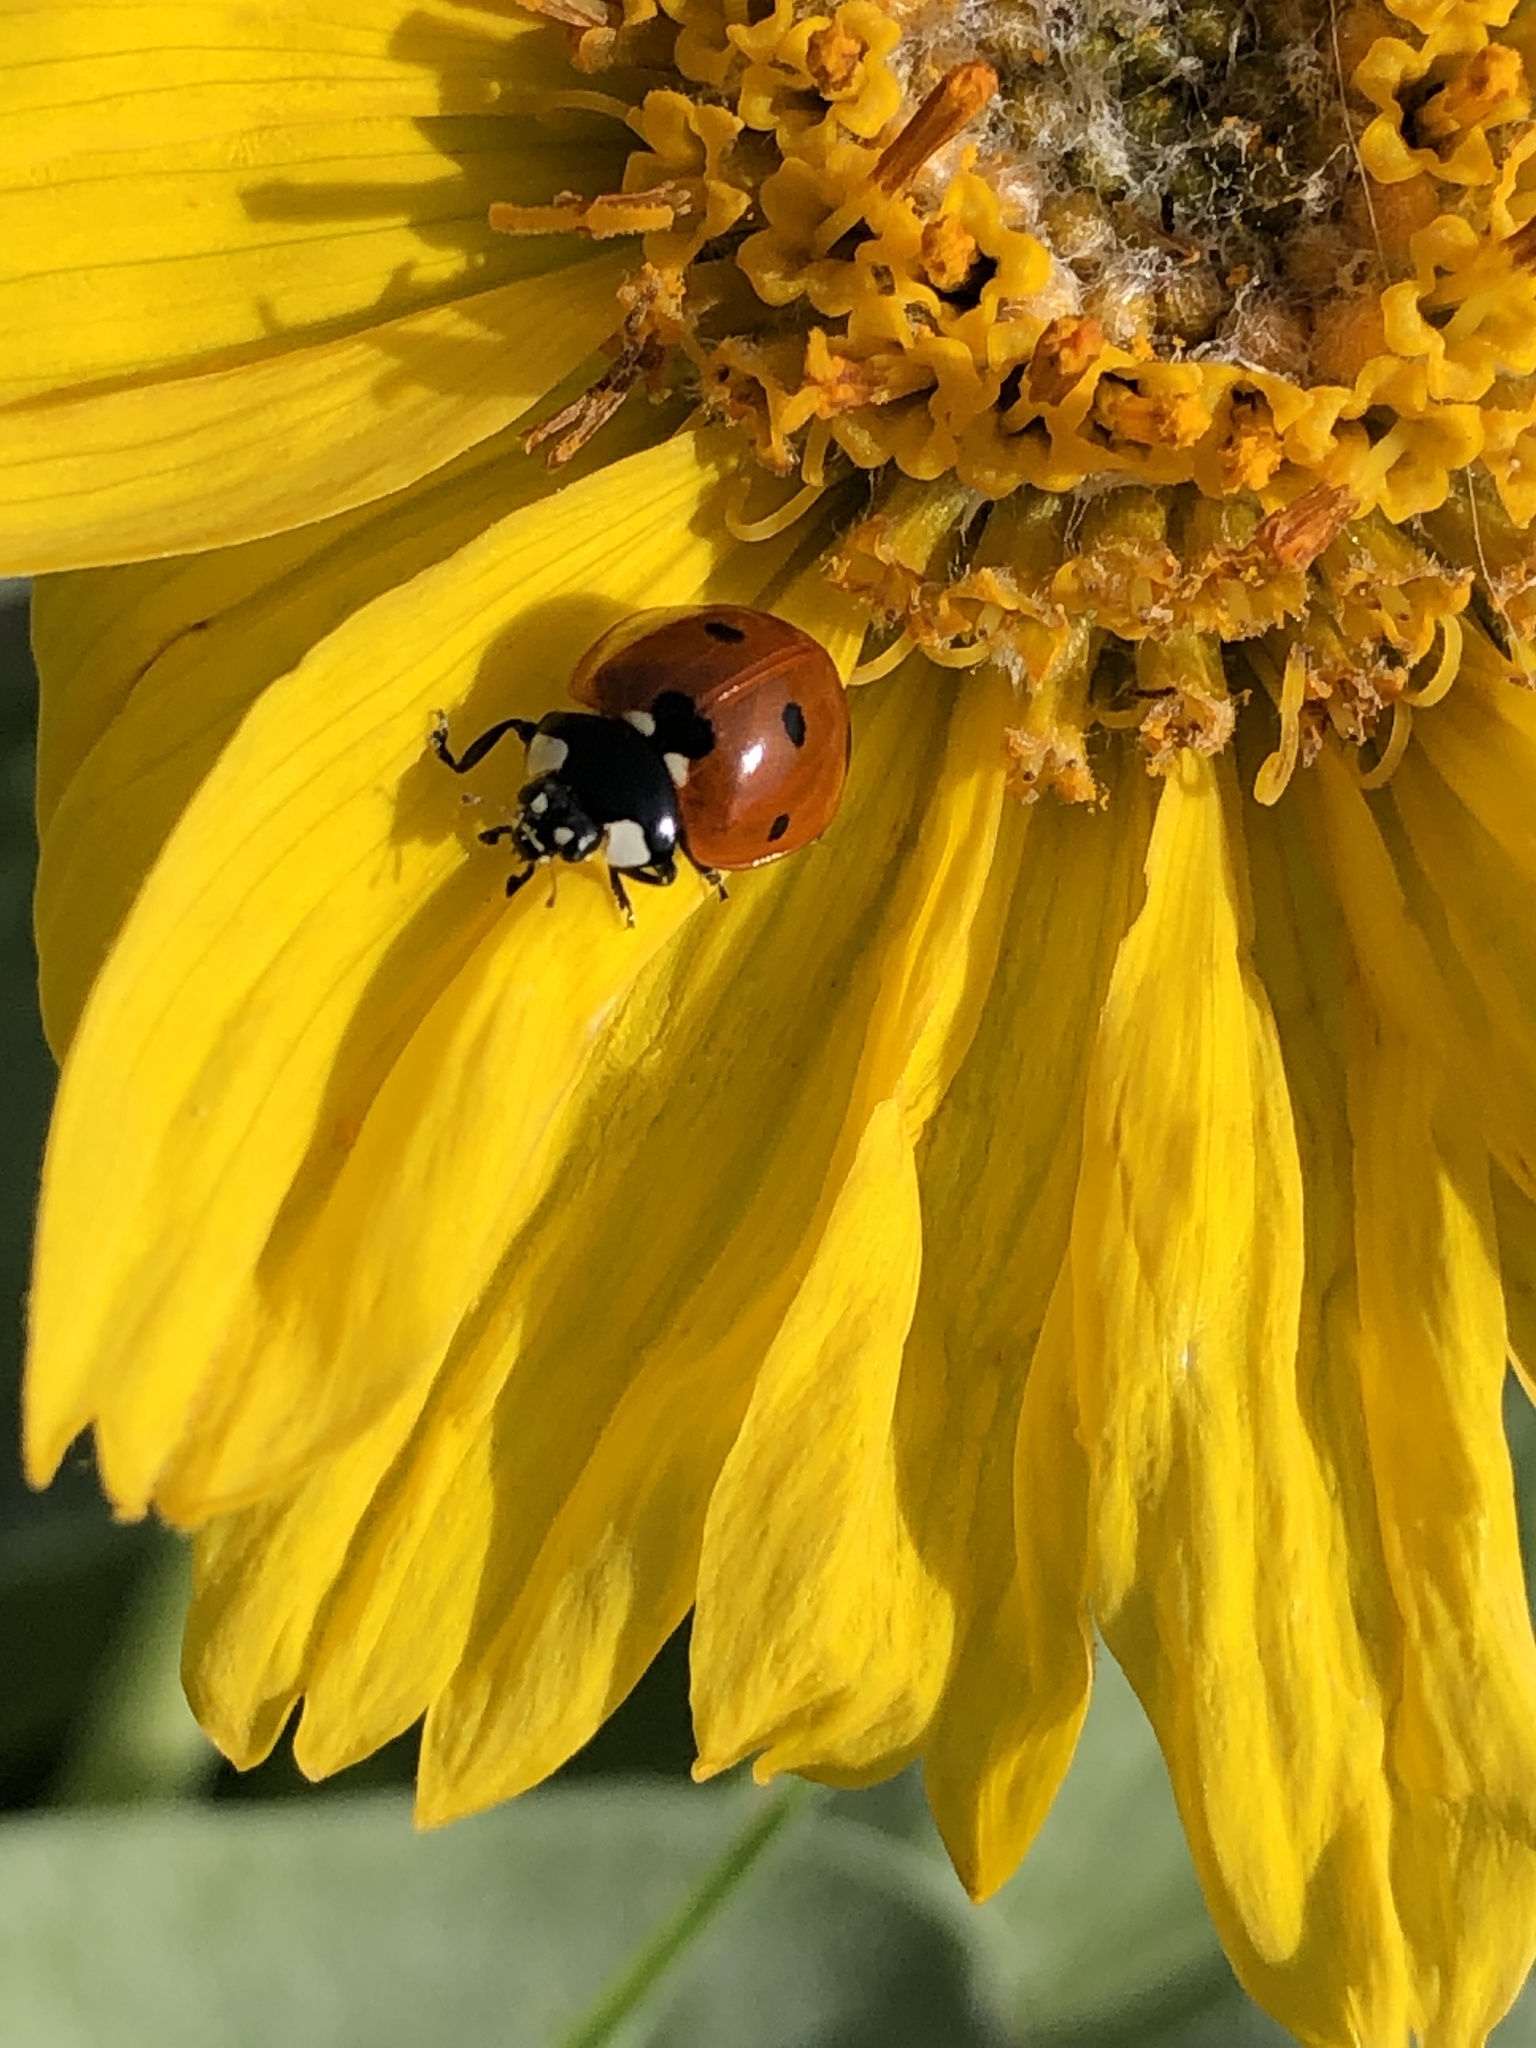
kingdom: Animalia
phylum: Arthropoda
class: Insecta
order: Coleoptera
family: Coccinellidae
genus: Coccinella
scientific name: Coccinella septempunctata
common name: Sevenspotted lady beetle
